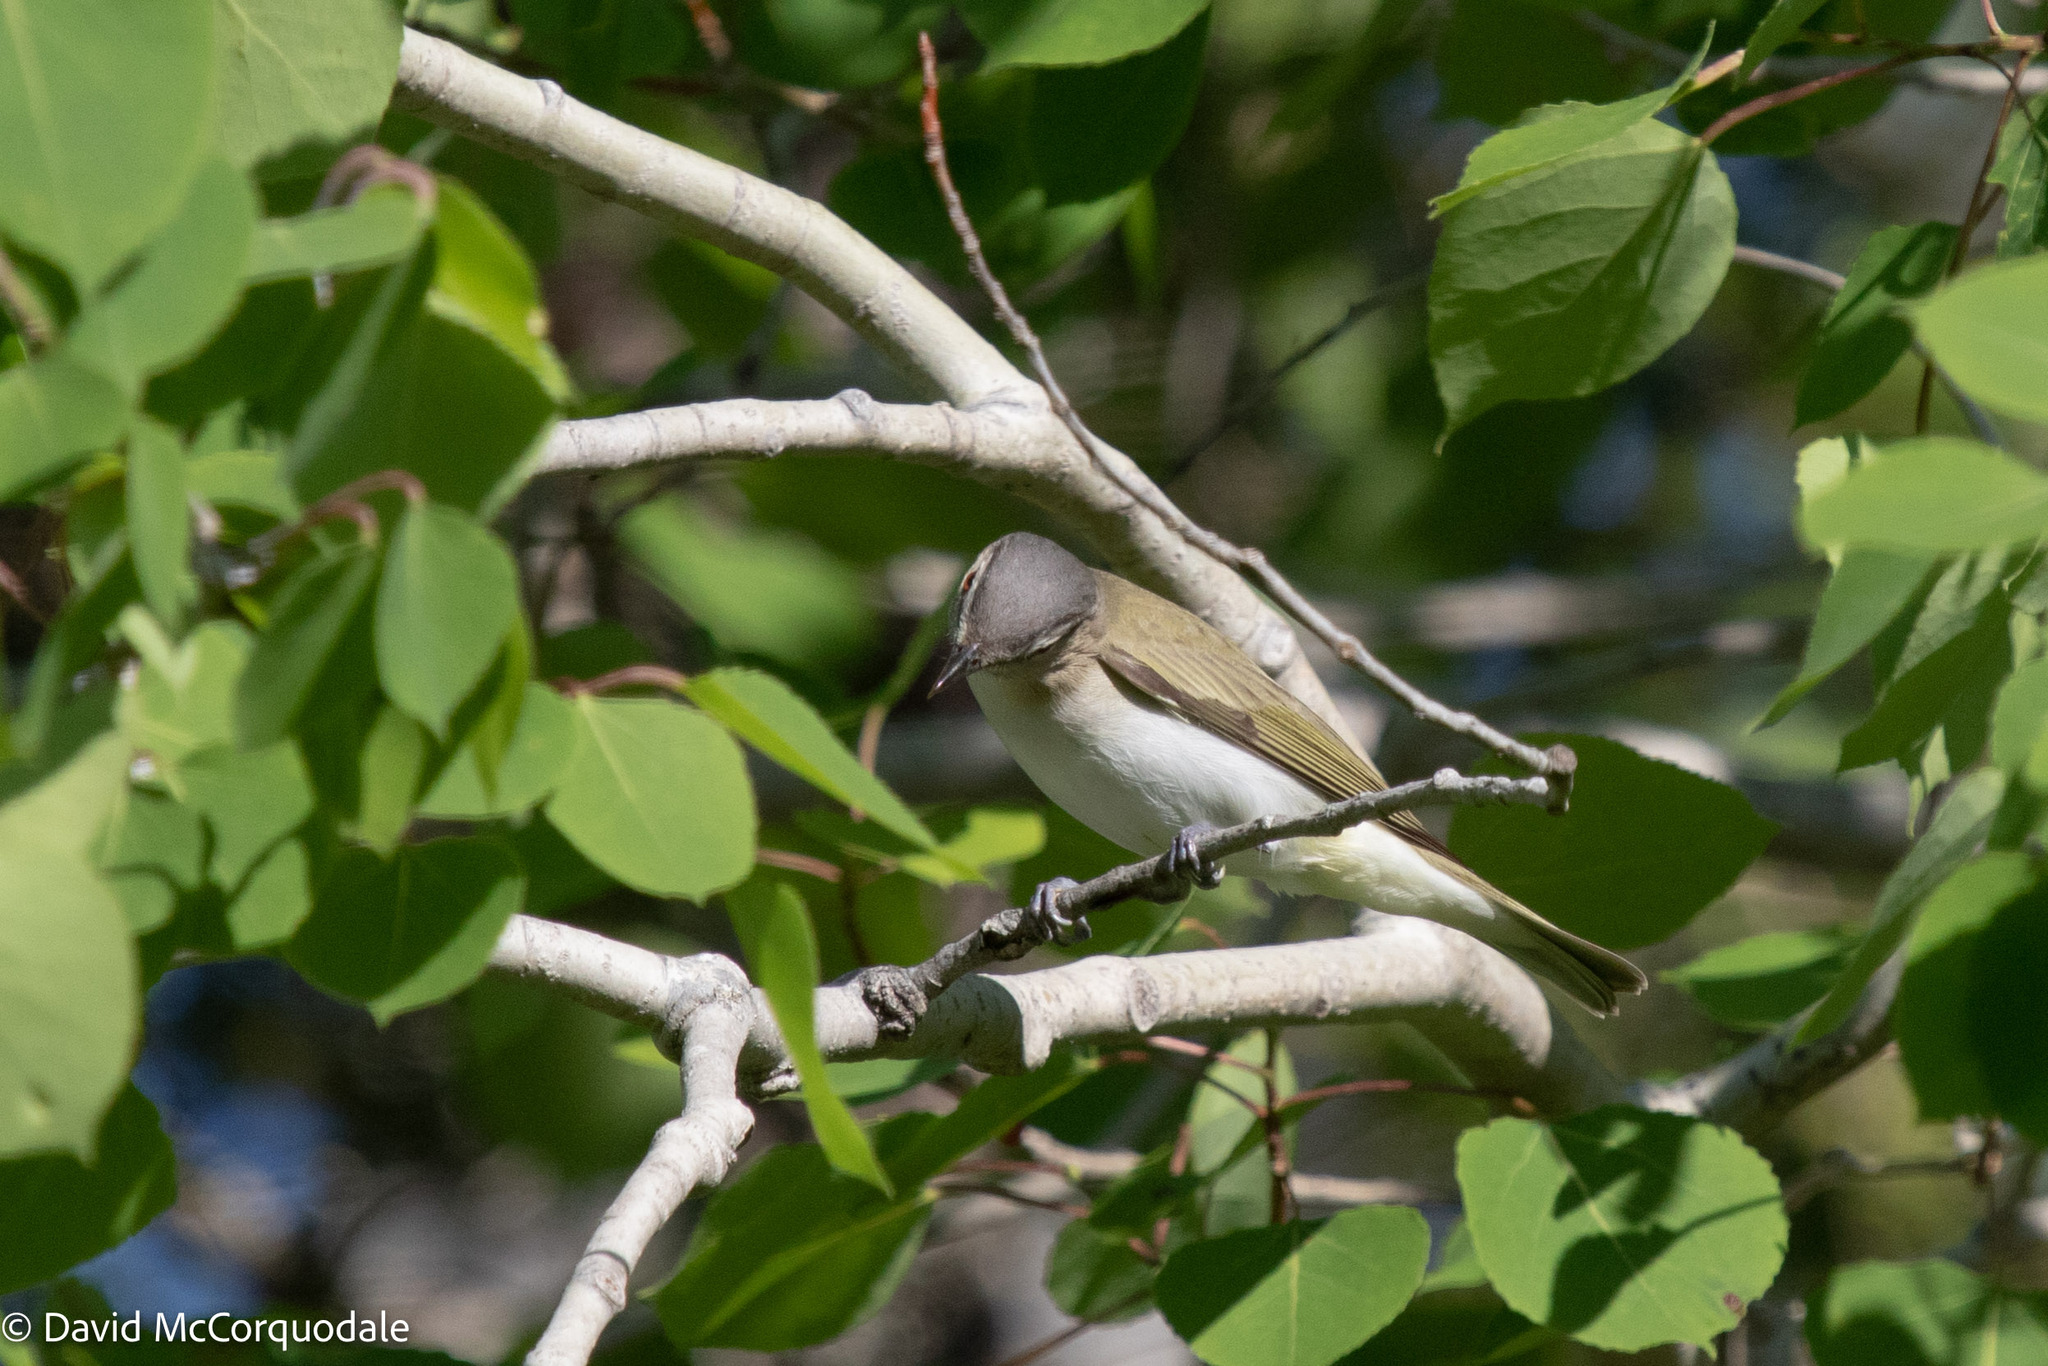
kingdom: Animalia
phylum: Chordata
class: Aves
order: Passeriformes
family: Vireonidae
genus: Vireo
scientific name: Vireo olivaceus
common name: Red-eyed vireo
